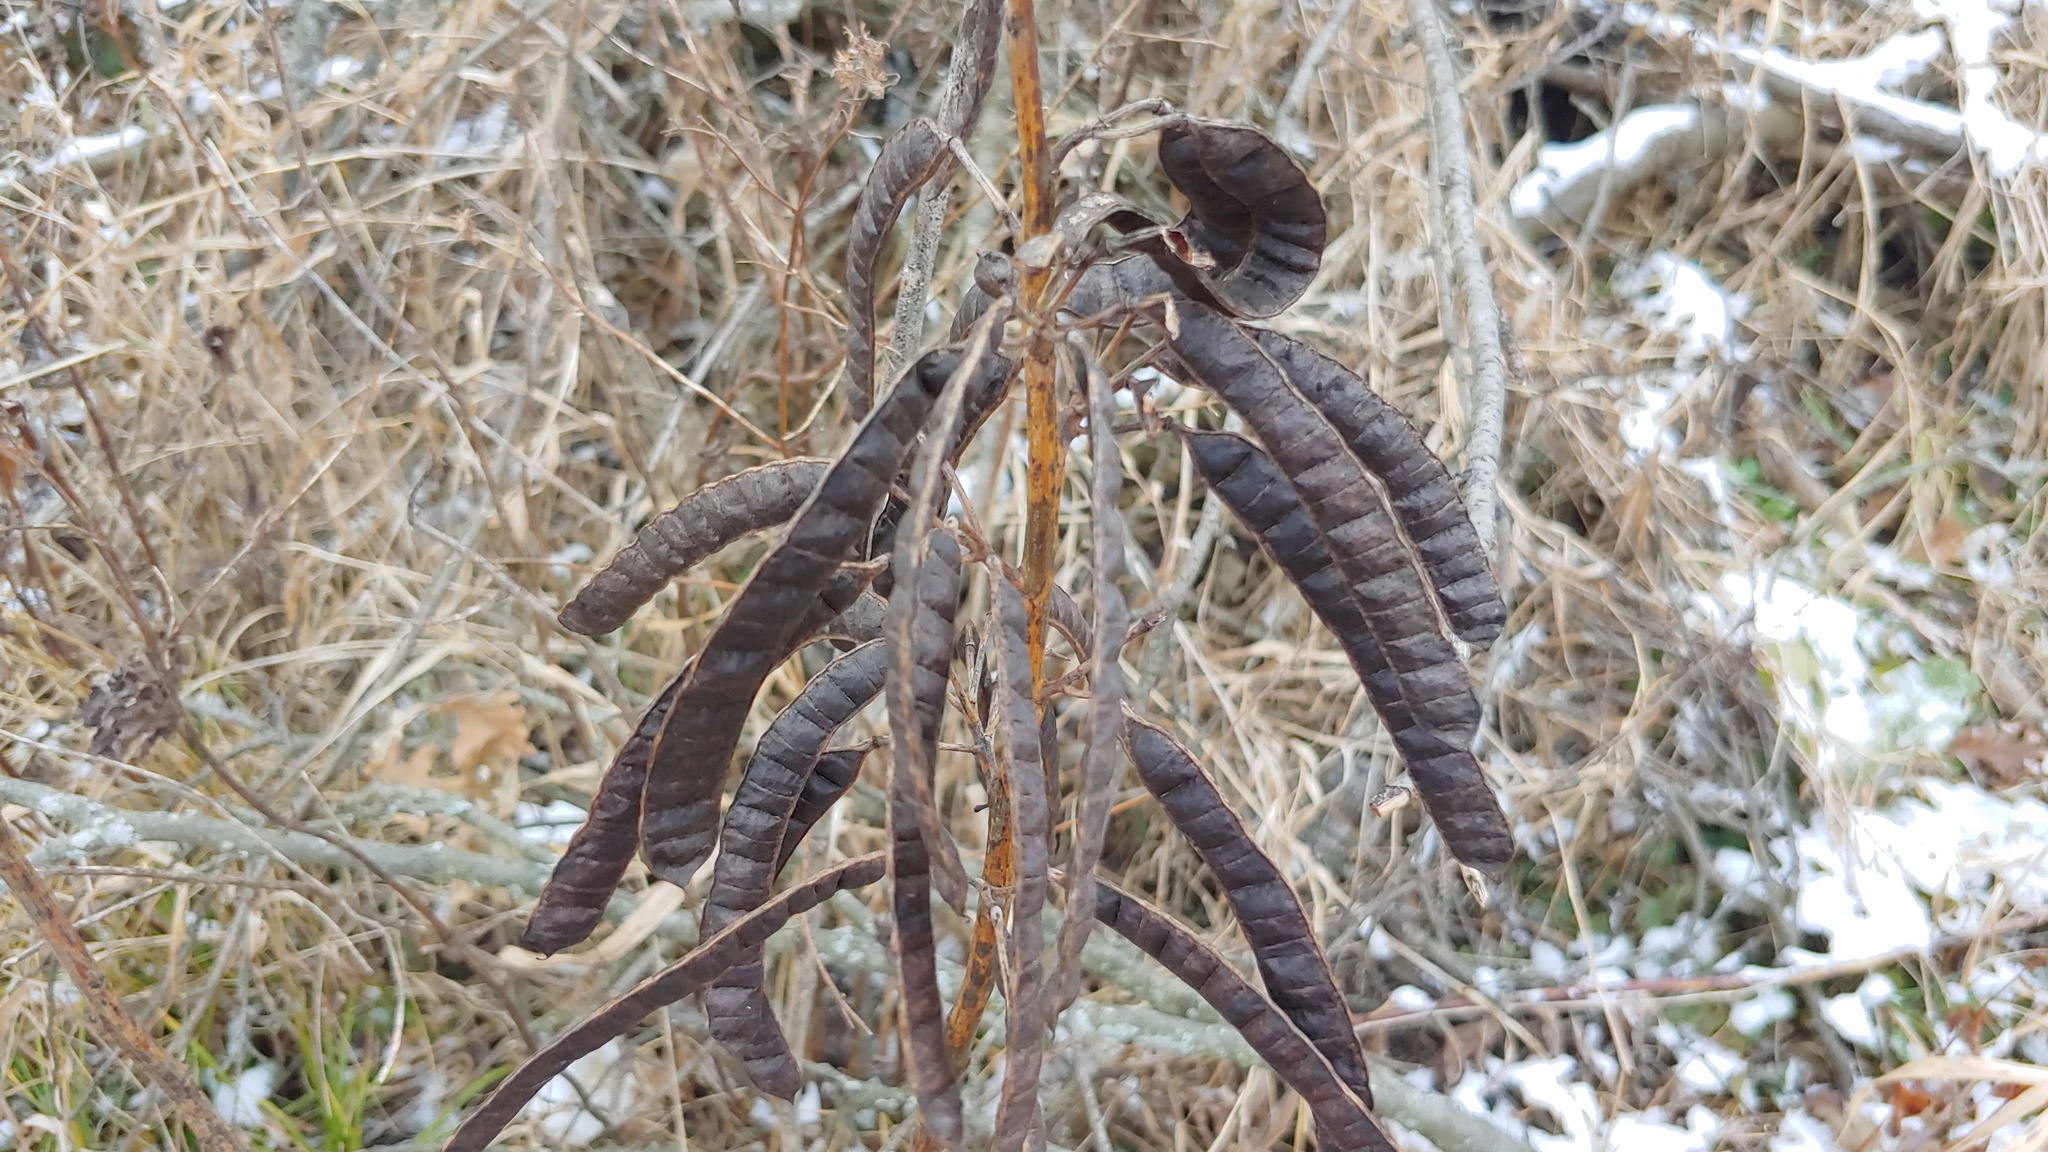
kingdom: Plantae
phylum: Tracheophyta
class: Magnoliopsida
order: Fabales
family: Fabaceae
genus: Senna
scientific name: Senna marilandica
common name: American senna
